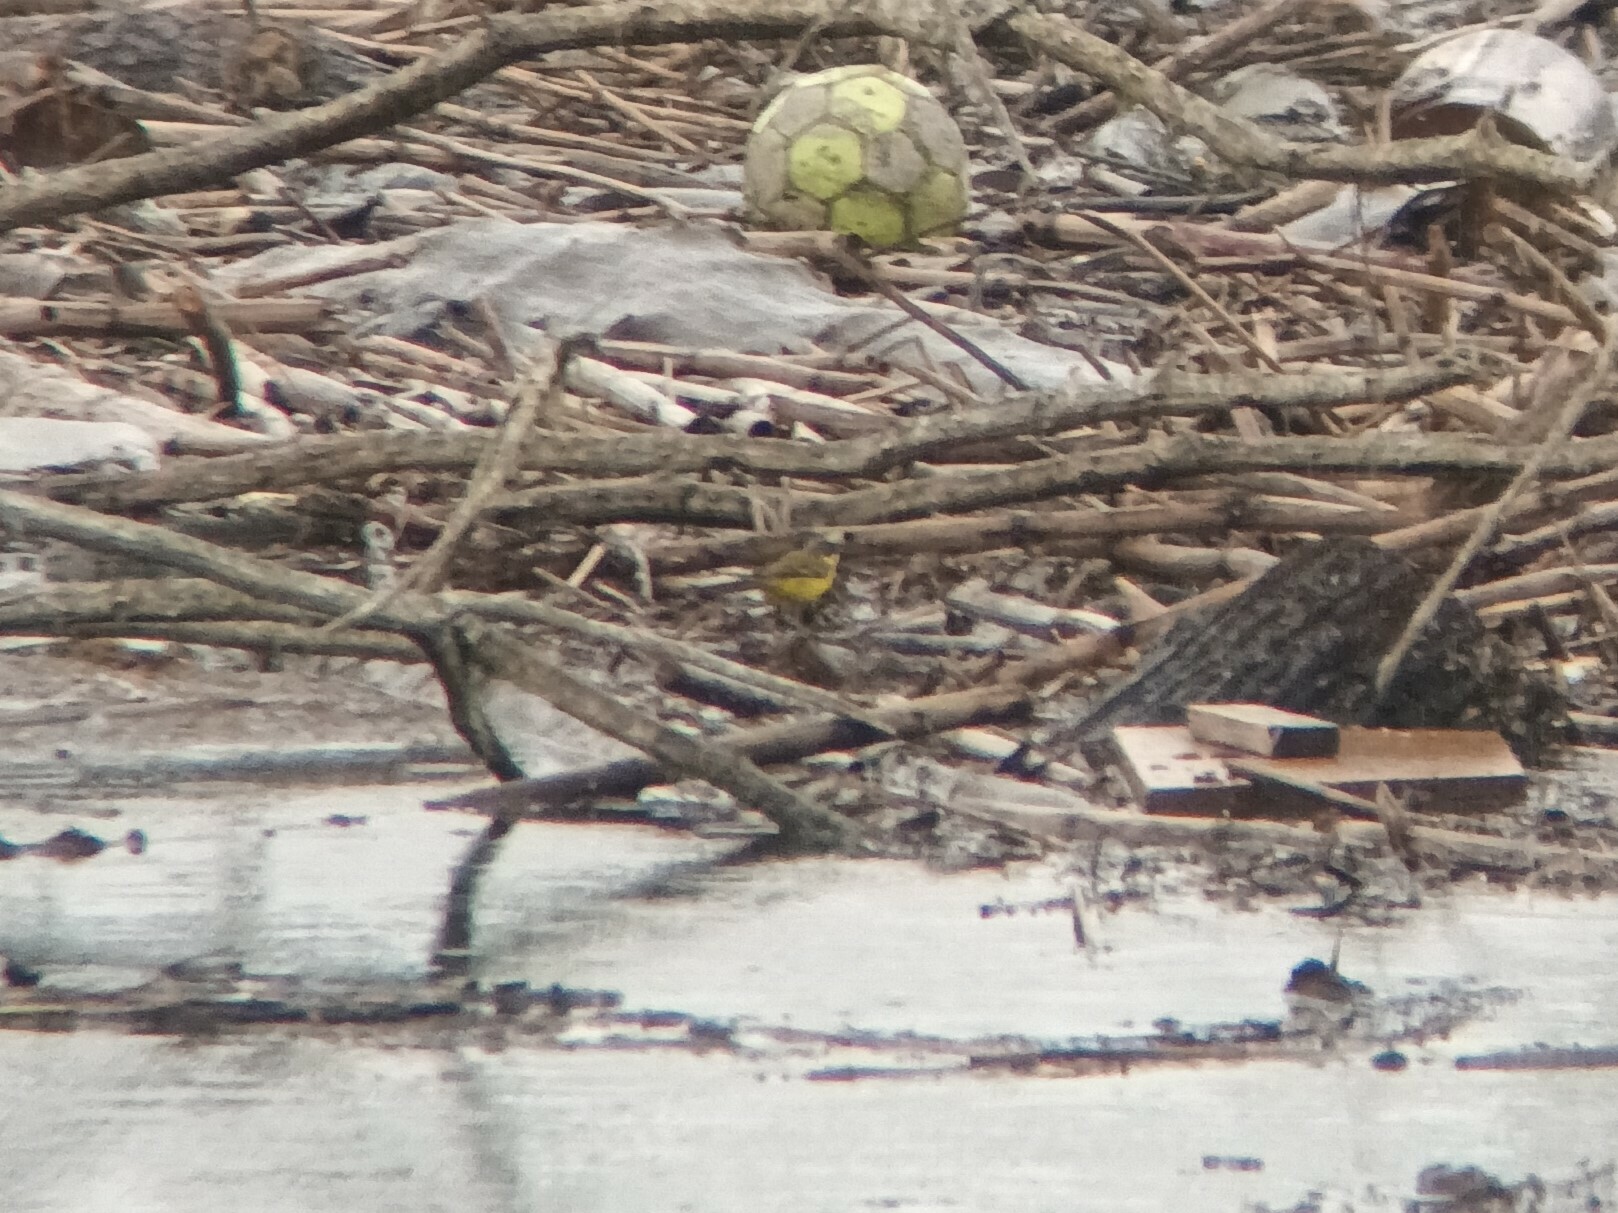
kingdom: Animalia
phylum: Chordata
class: Aves
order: Passeriformes
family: Motacillidae
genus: Motacilla
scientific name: Motacilla flava
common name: Western yellow wagtail
